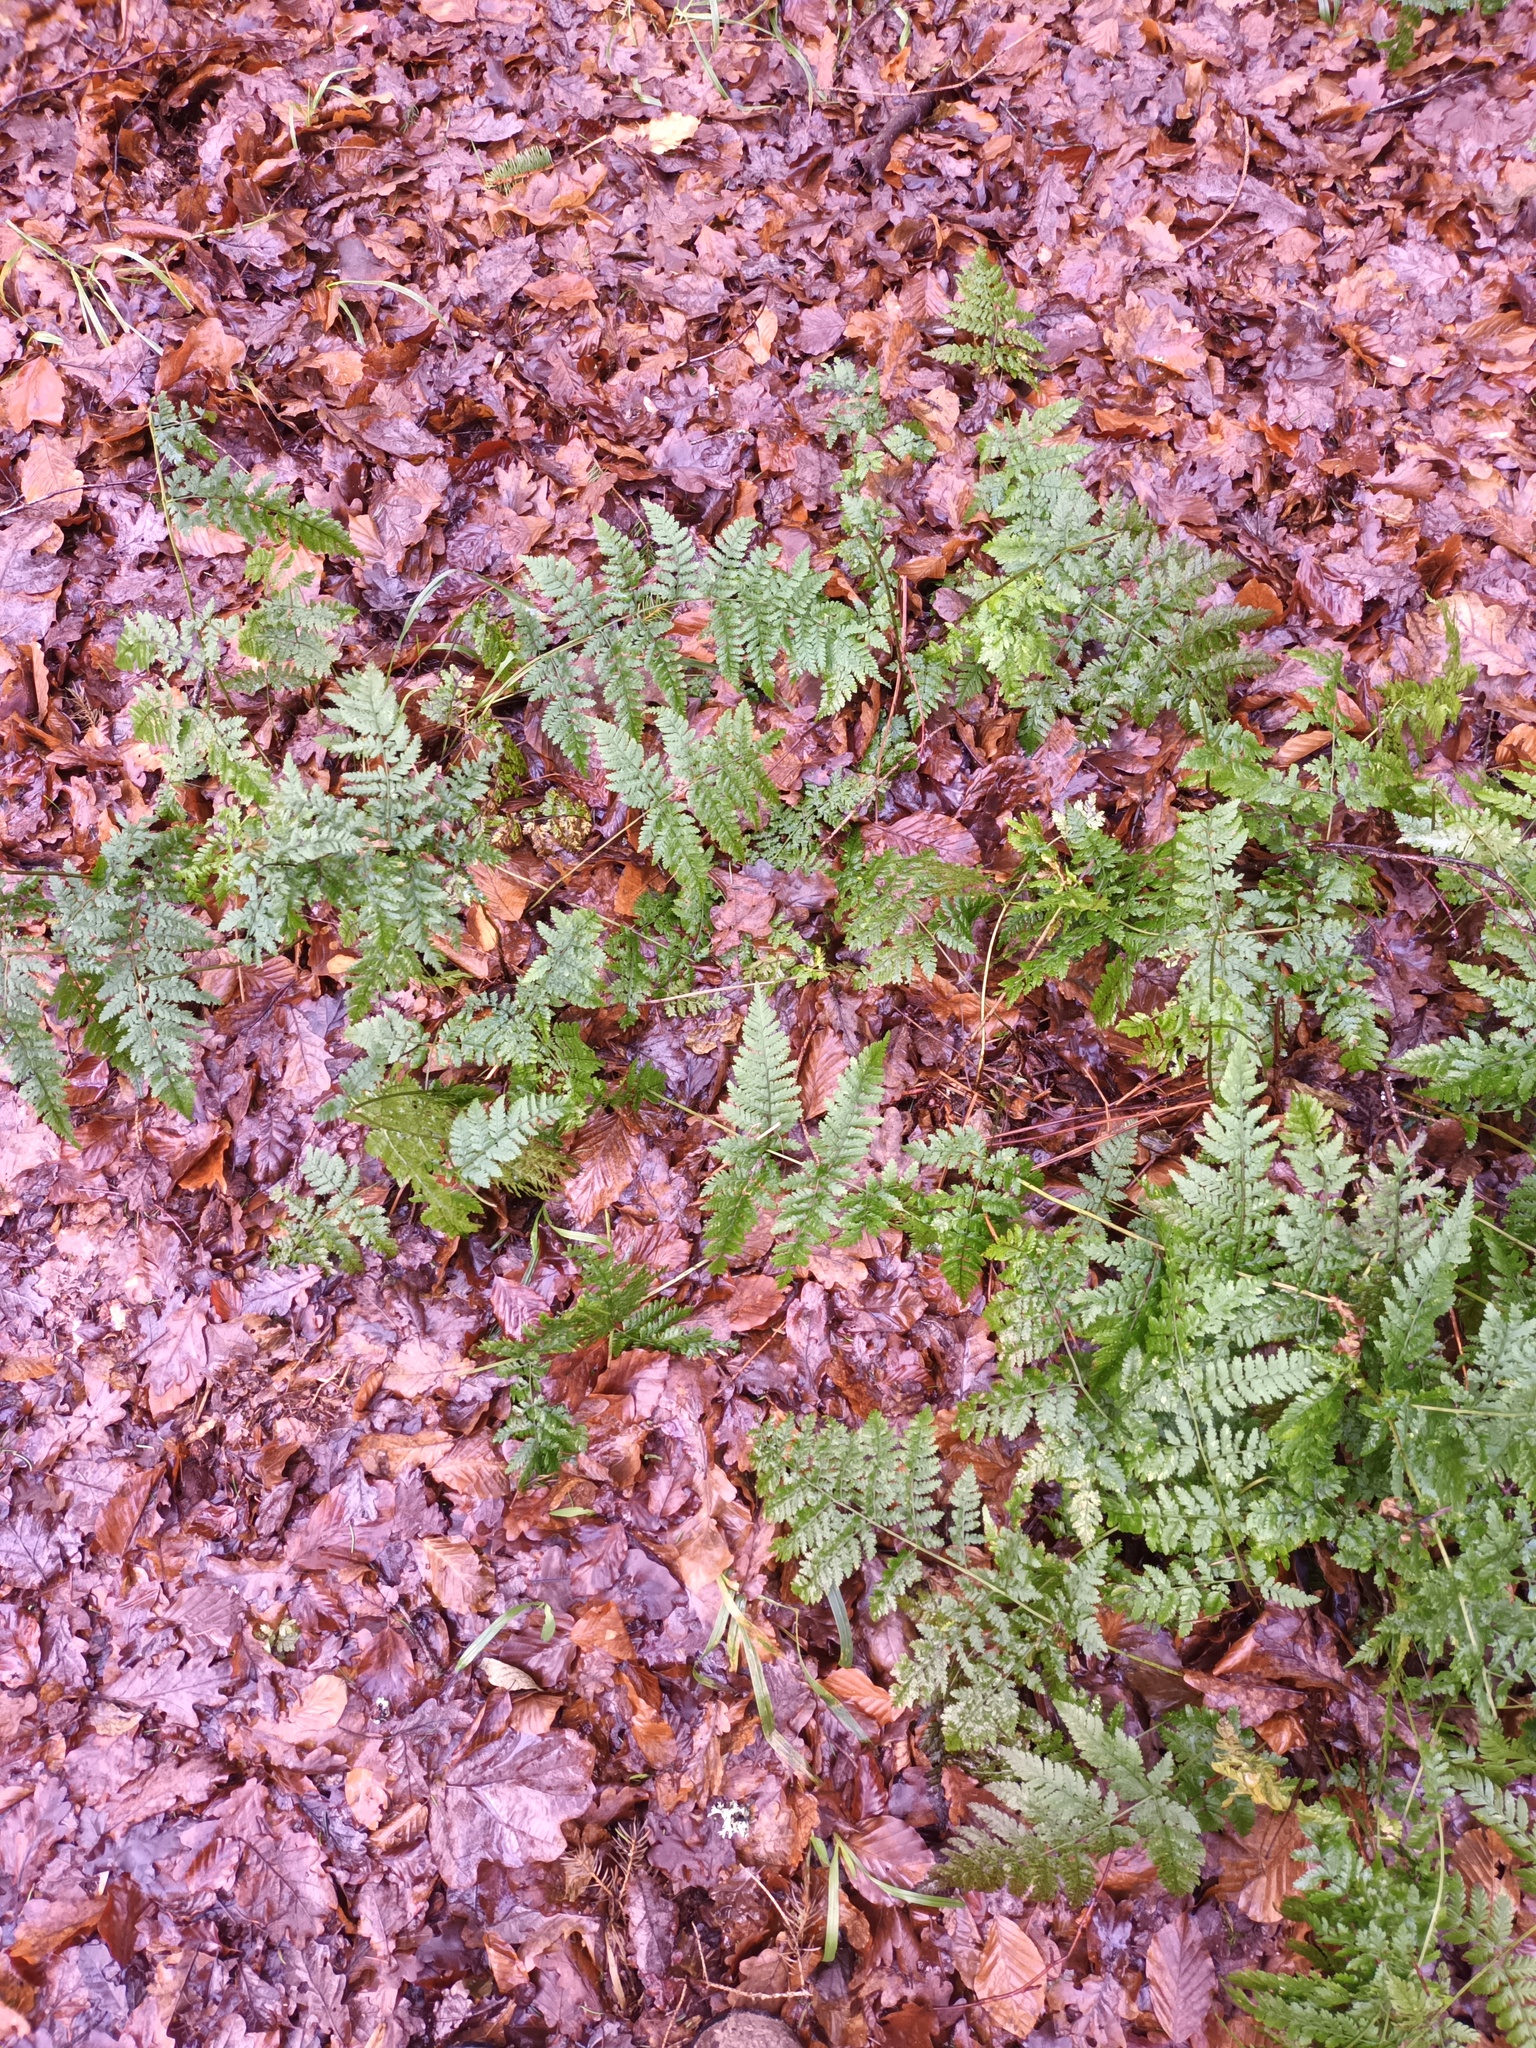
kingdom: Plantae
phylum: Tracheophyta
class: Polypodiopsida
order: Polypodiales
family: Dryopteridaceae
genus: Dryopteris
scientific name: Dryopteris dilatata
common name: Broad buckler-fern
